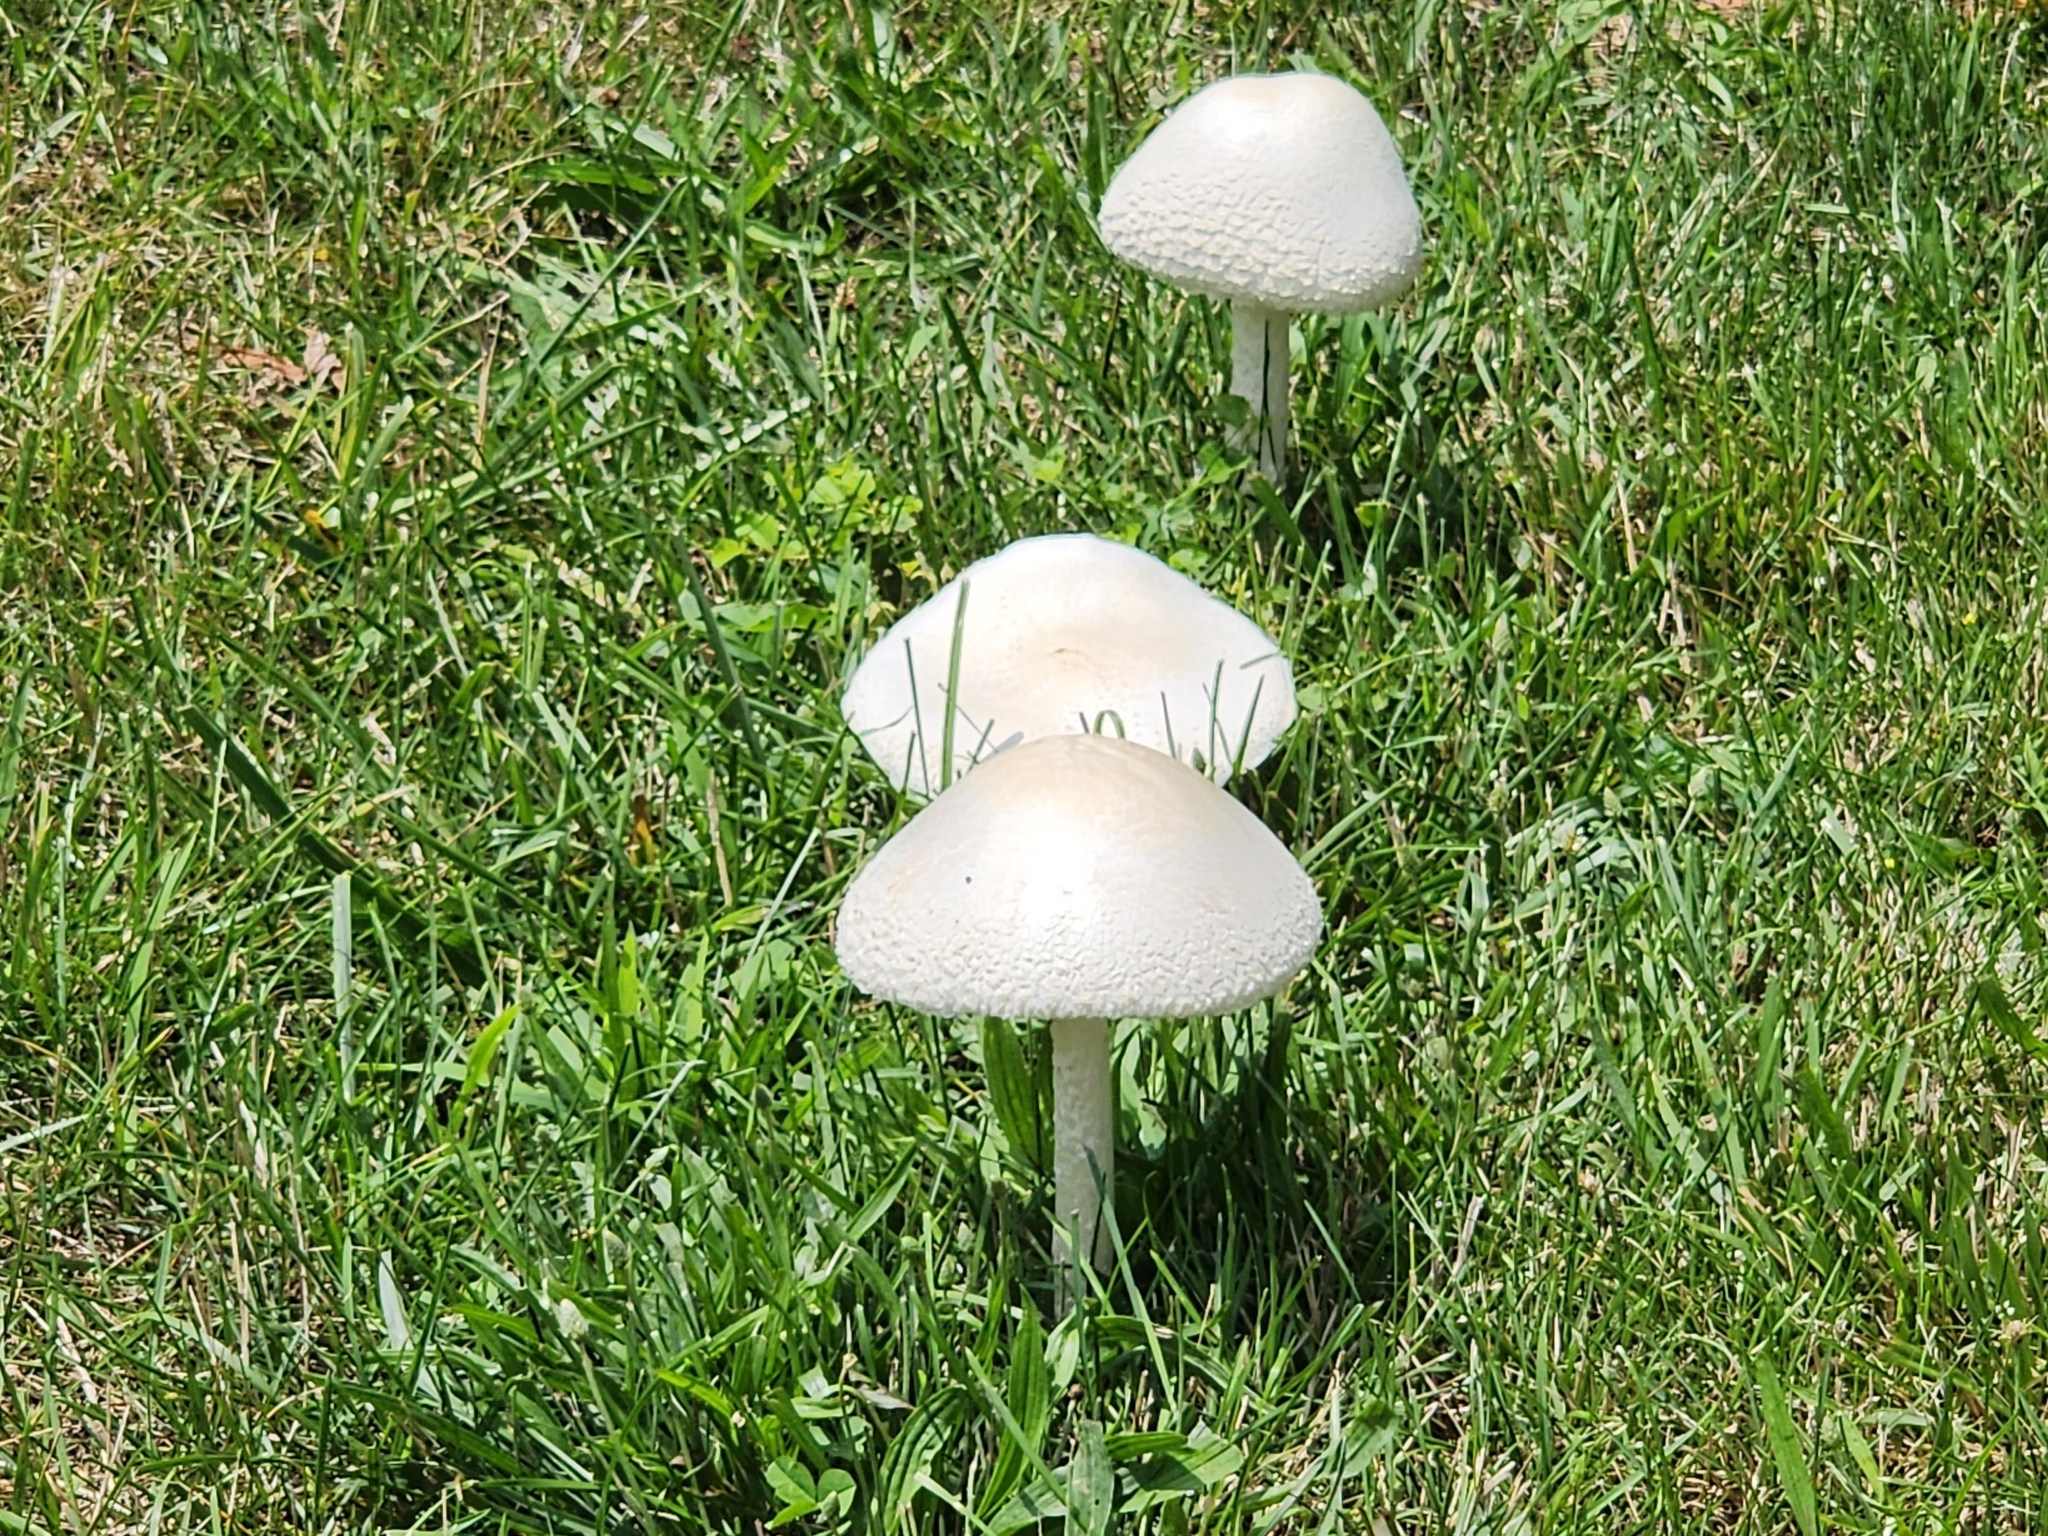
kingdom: Fungi
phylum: Basidiomycota
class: Agaricomycetes
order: Agaricales
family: Amanitaceae
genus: Amanita
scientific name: Amanita thiersii
